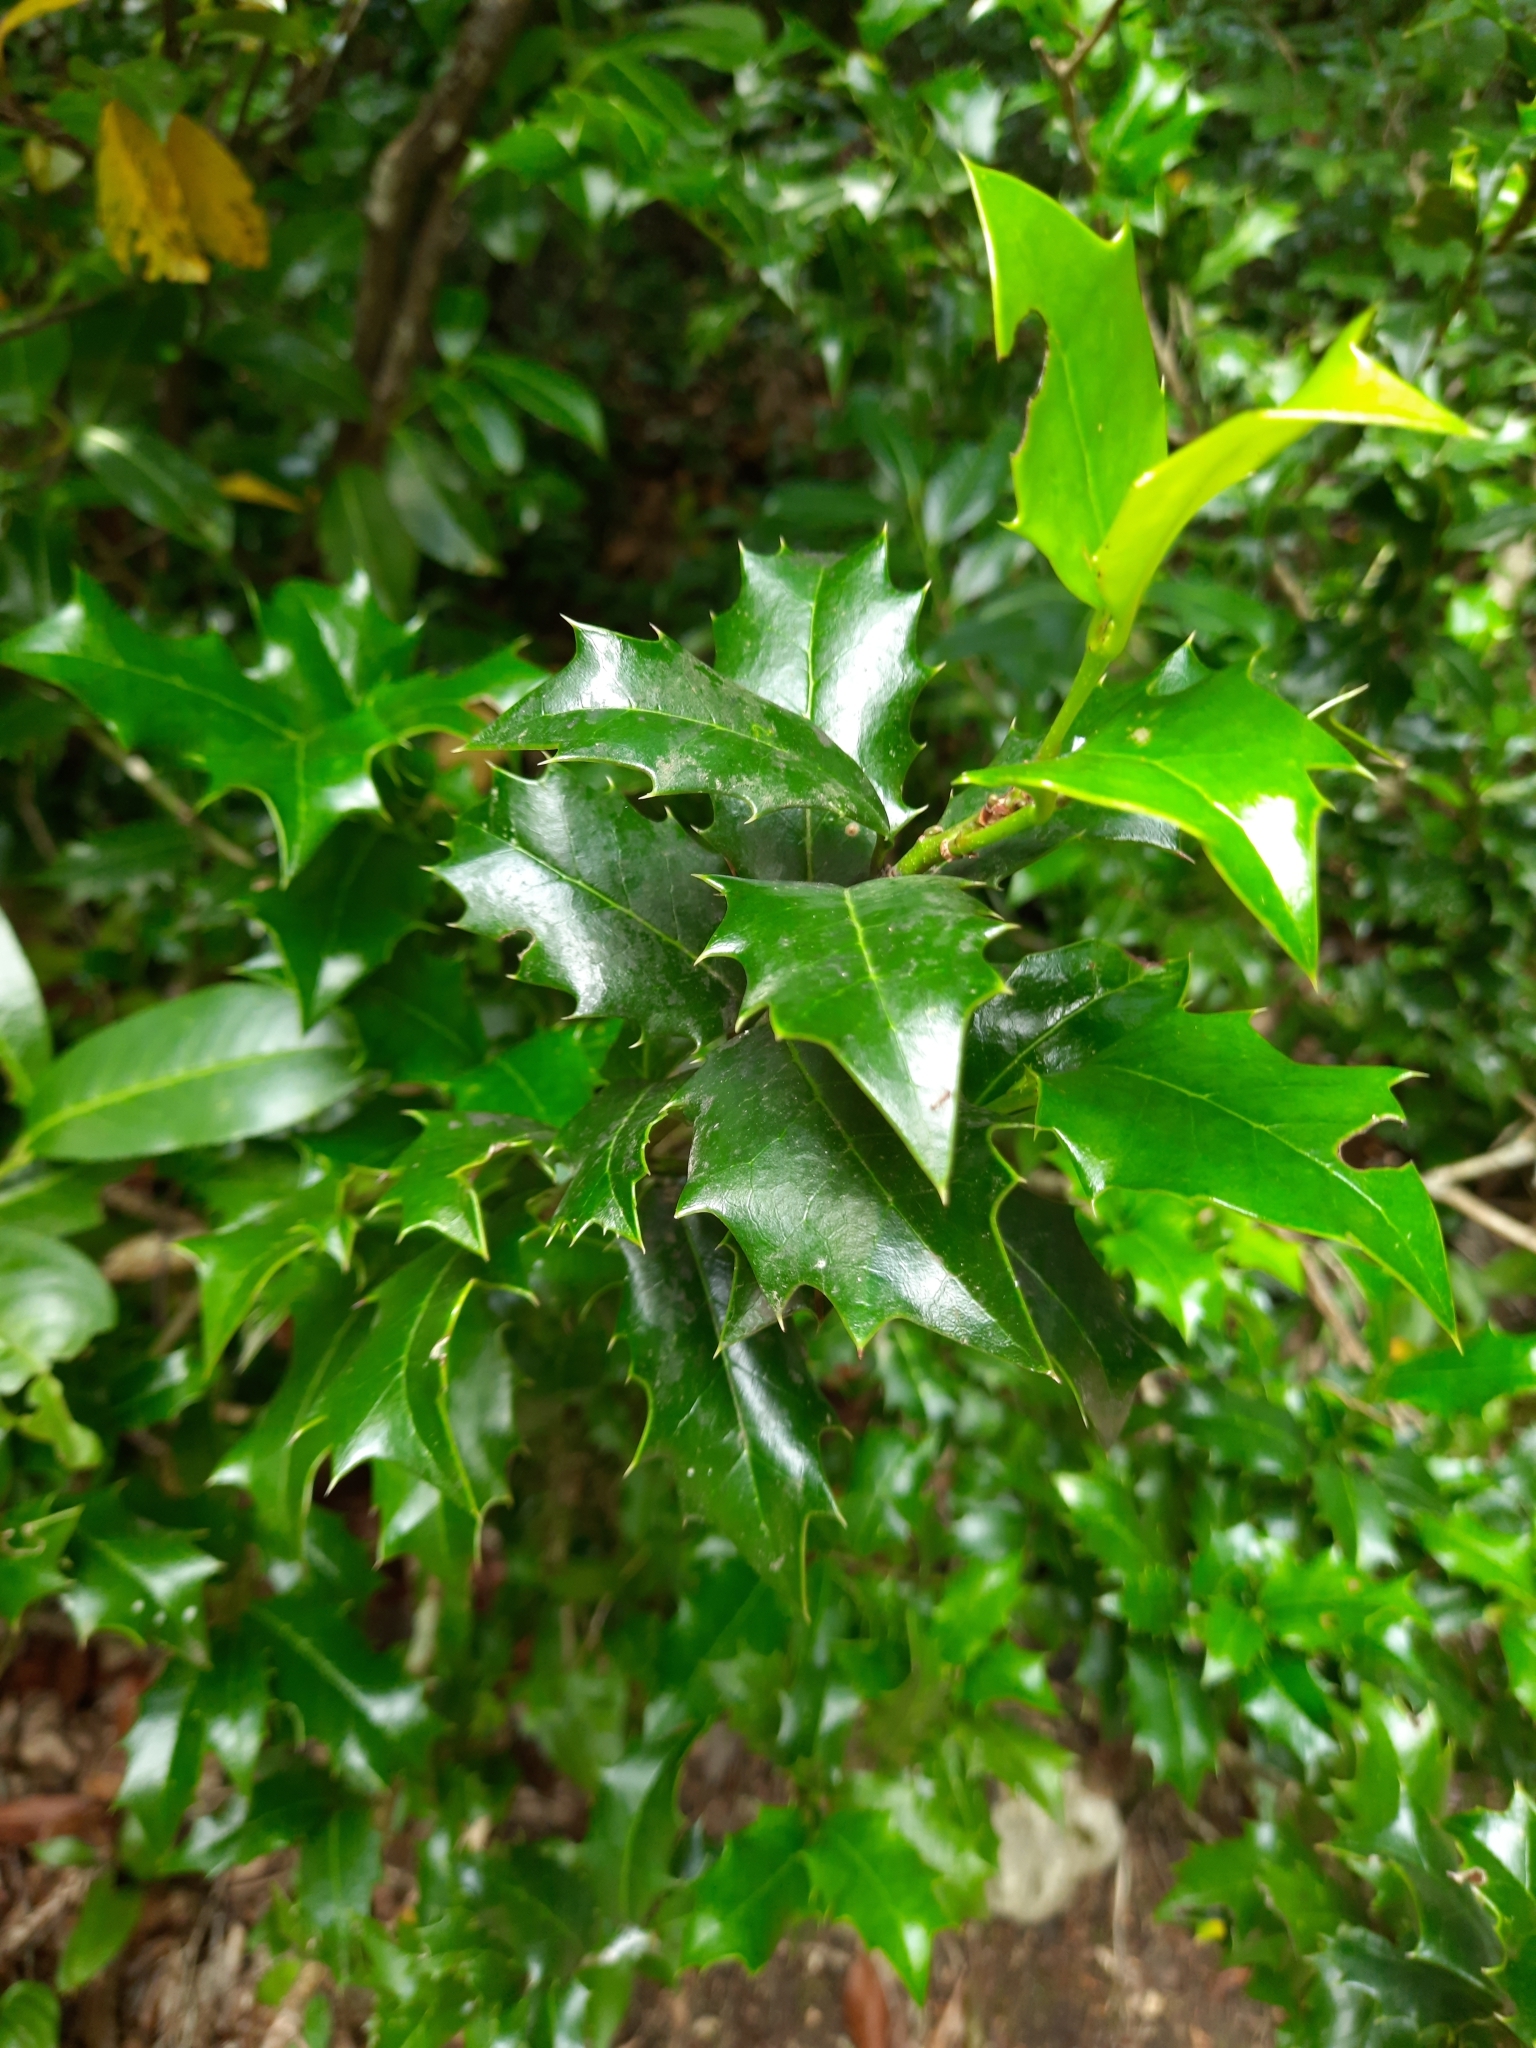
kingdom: Plantae
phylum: Tracheophyta
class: Magnoliopsida
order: Aquifoliales
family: Aquifoliaceae
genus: Ilex
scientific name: Ilex colchica
